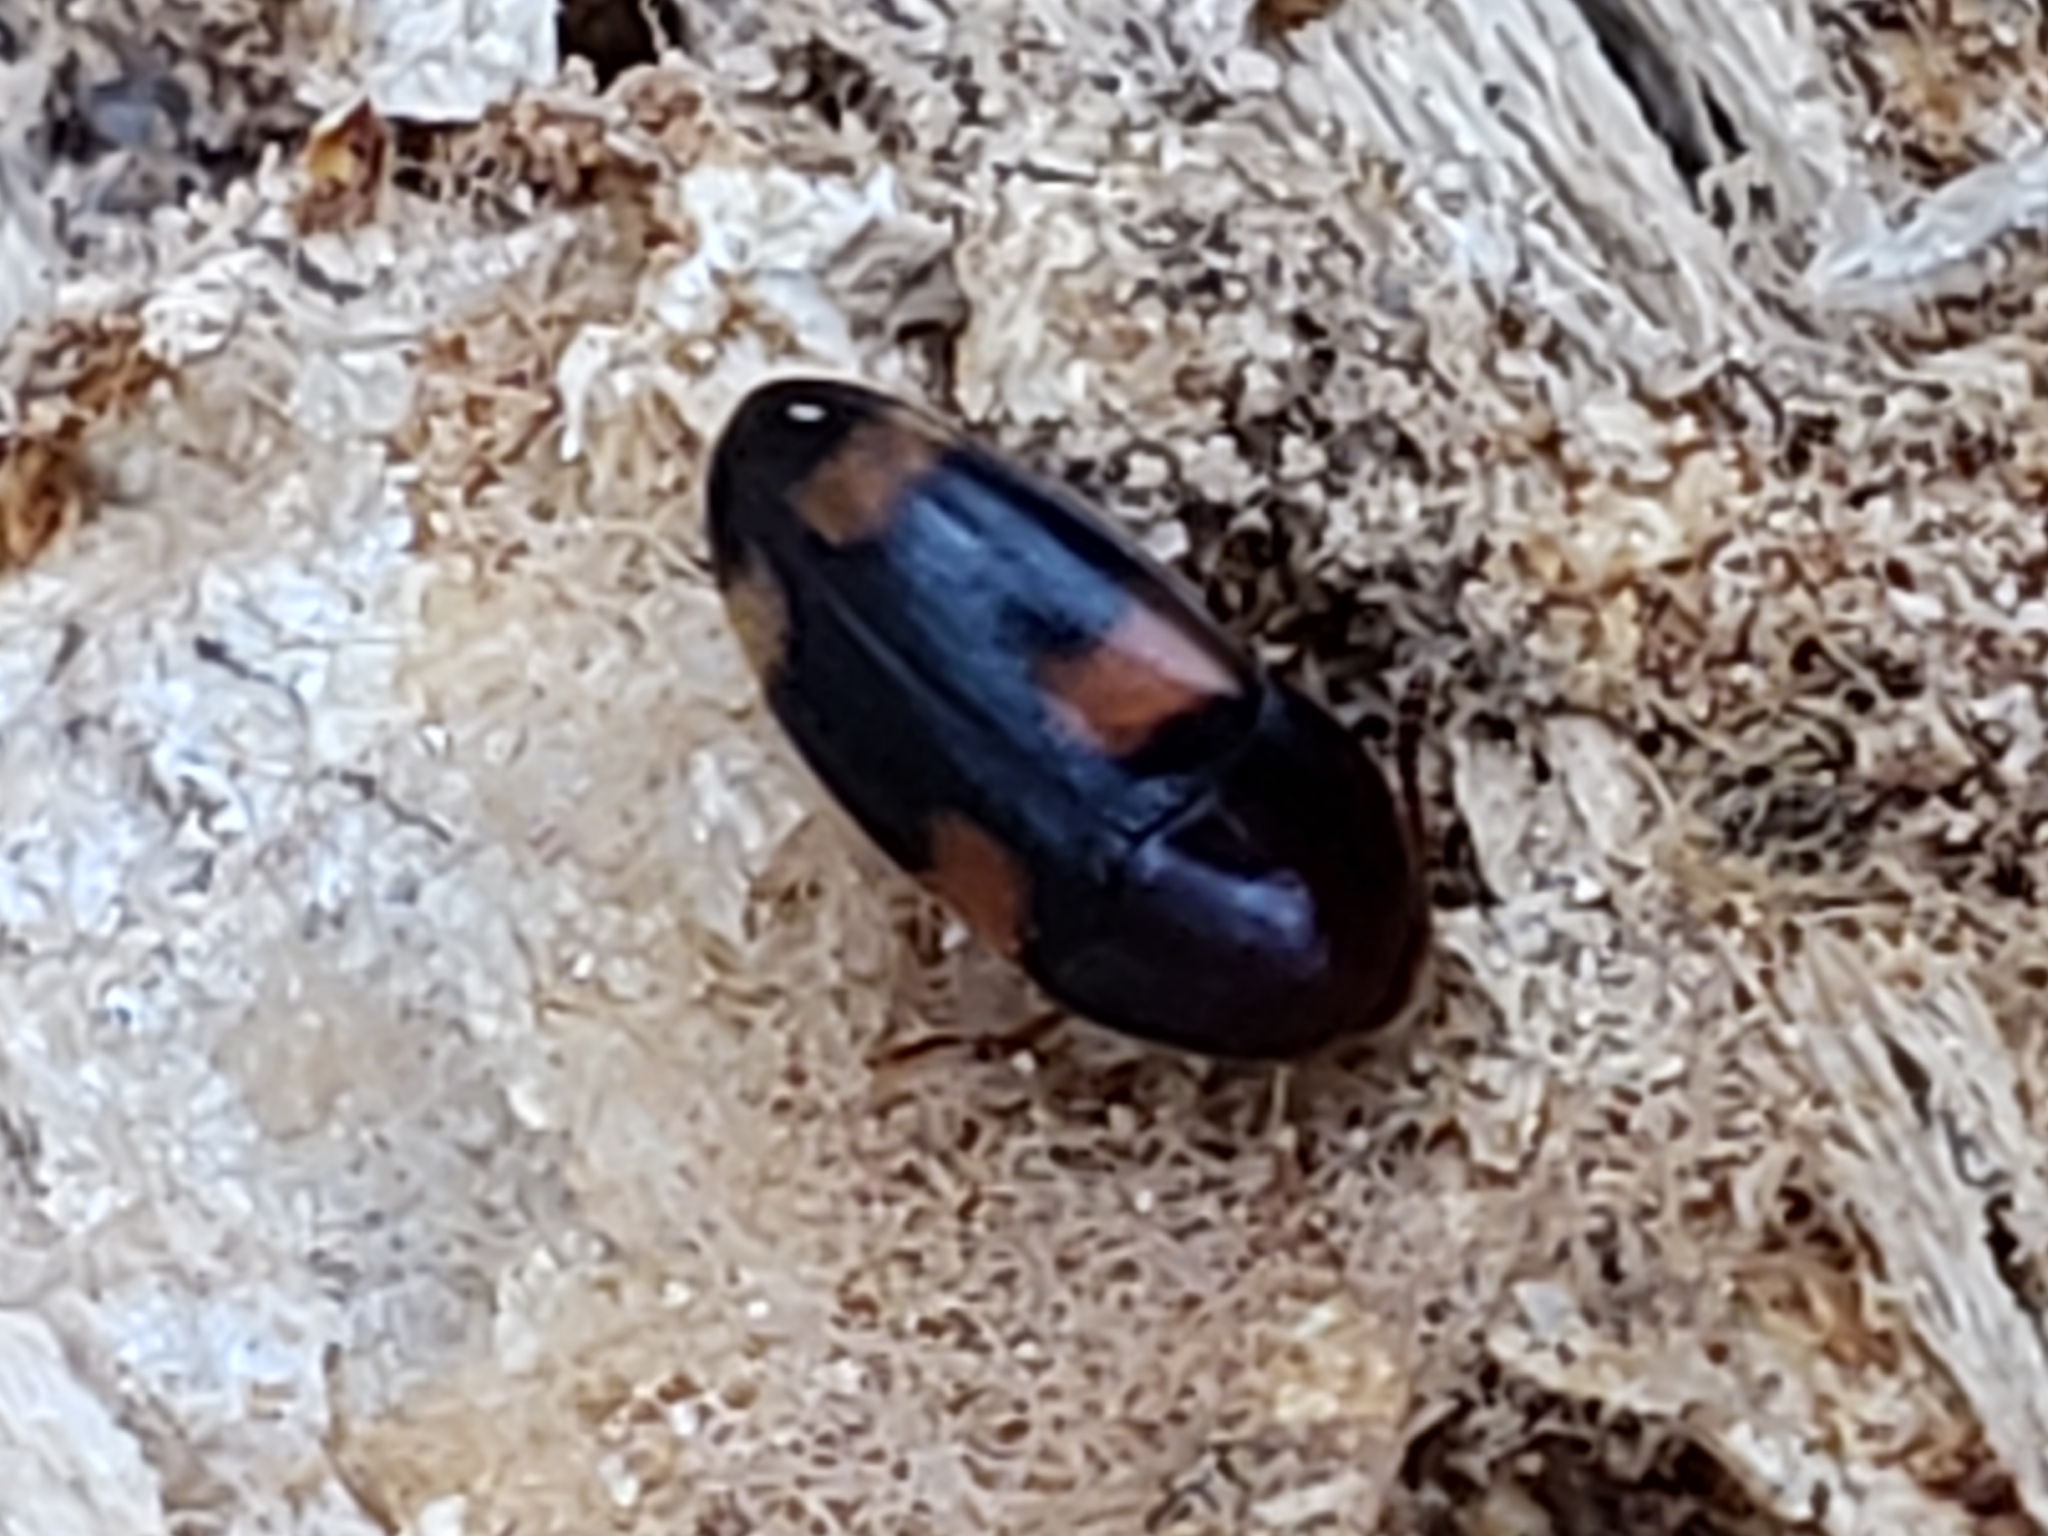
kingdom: Animalia
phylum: Arthropoda
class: Insecta
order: Coleoptera
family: Tetratomidae
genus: Holostrophus
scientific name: Holostrophus bifasciatus
